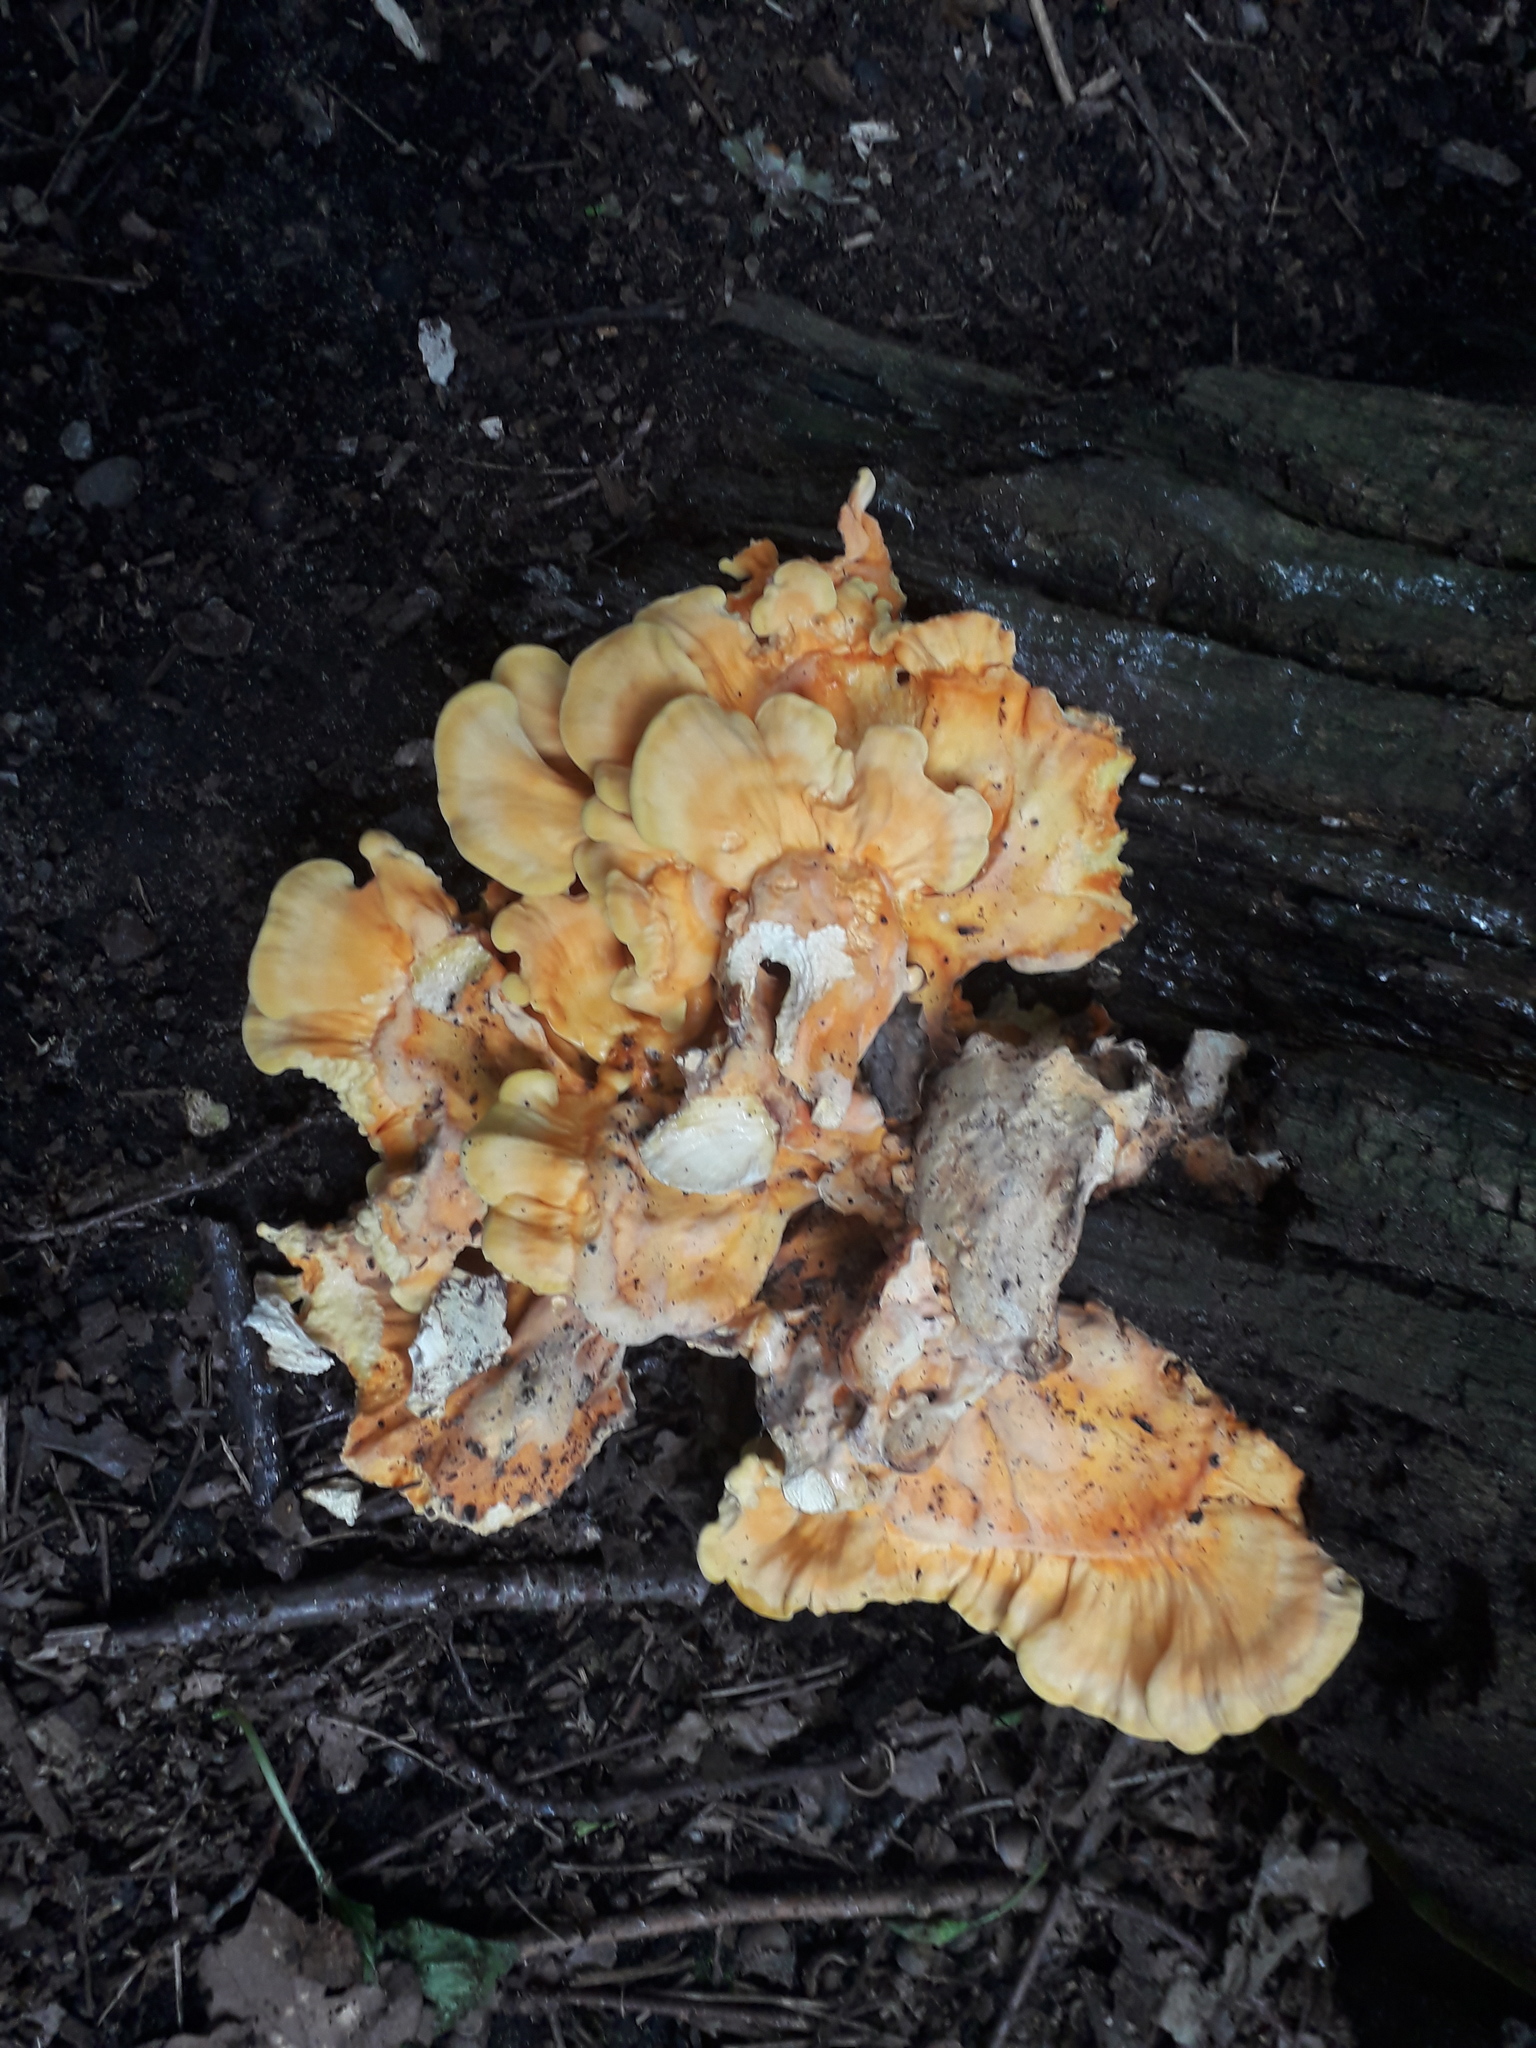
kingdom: Fungi
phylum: Basidiomycota
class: Agaricomycetes
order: Polyporales
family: Laetiporaceae
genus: Laetiporus
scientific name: Laetiporus sulphureus
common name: Chicken of the woods
